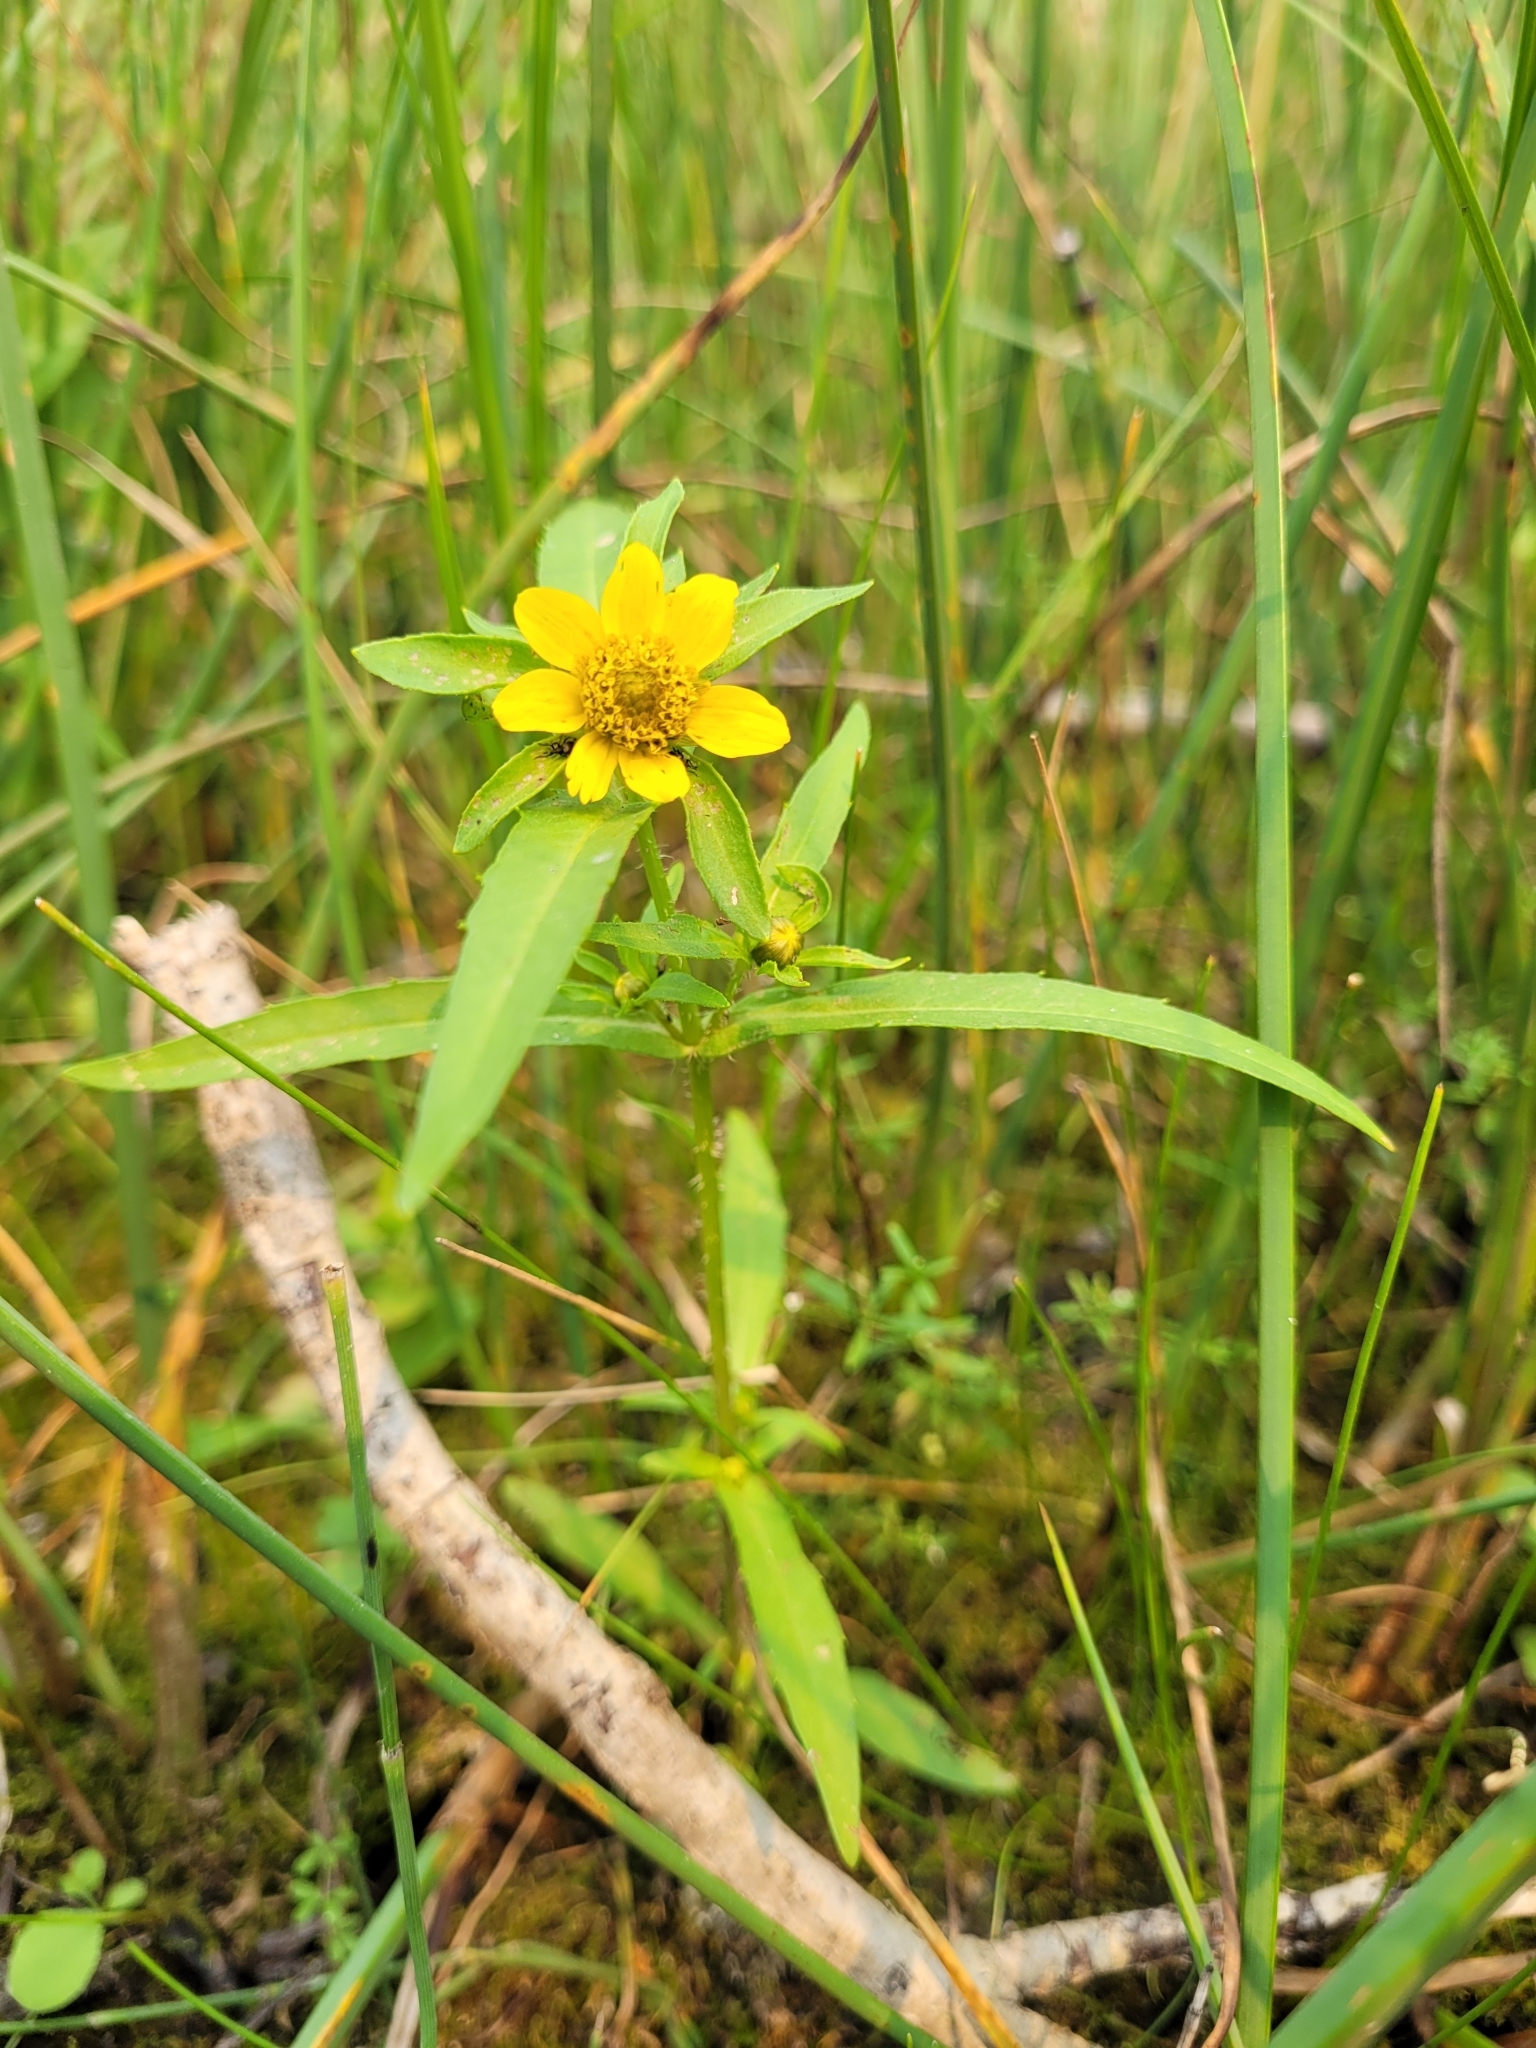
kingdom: Plantae
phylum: Tracheophyta
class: Magnoliopsida
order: Asterales
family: Asteraceae
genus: Bidens
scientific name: Bidens cernua
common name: Nodding bur-marigold
